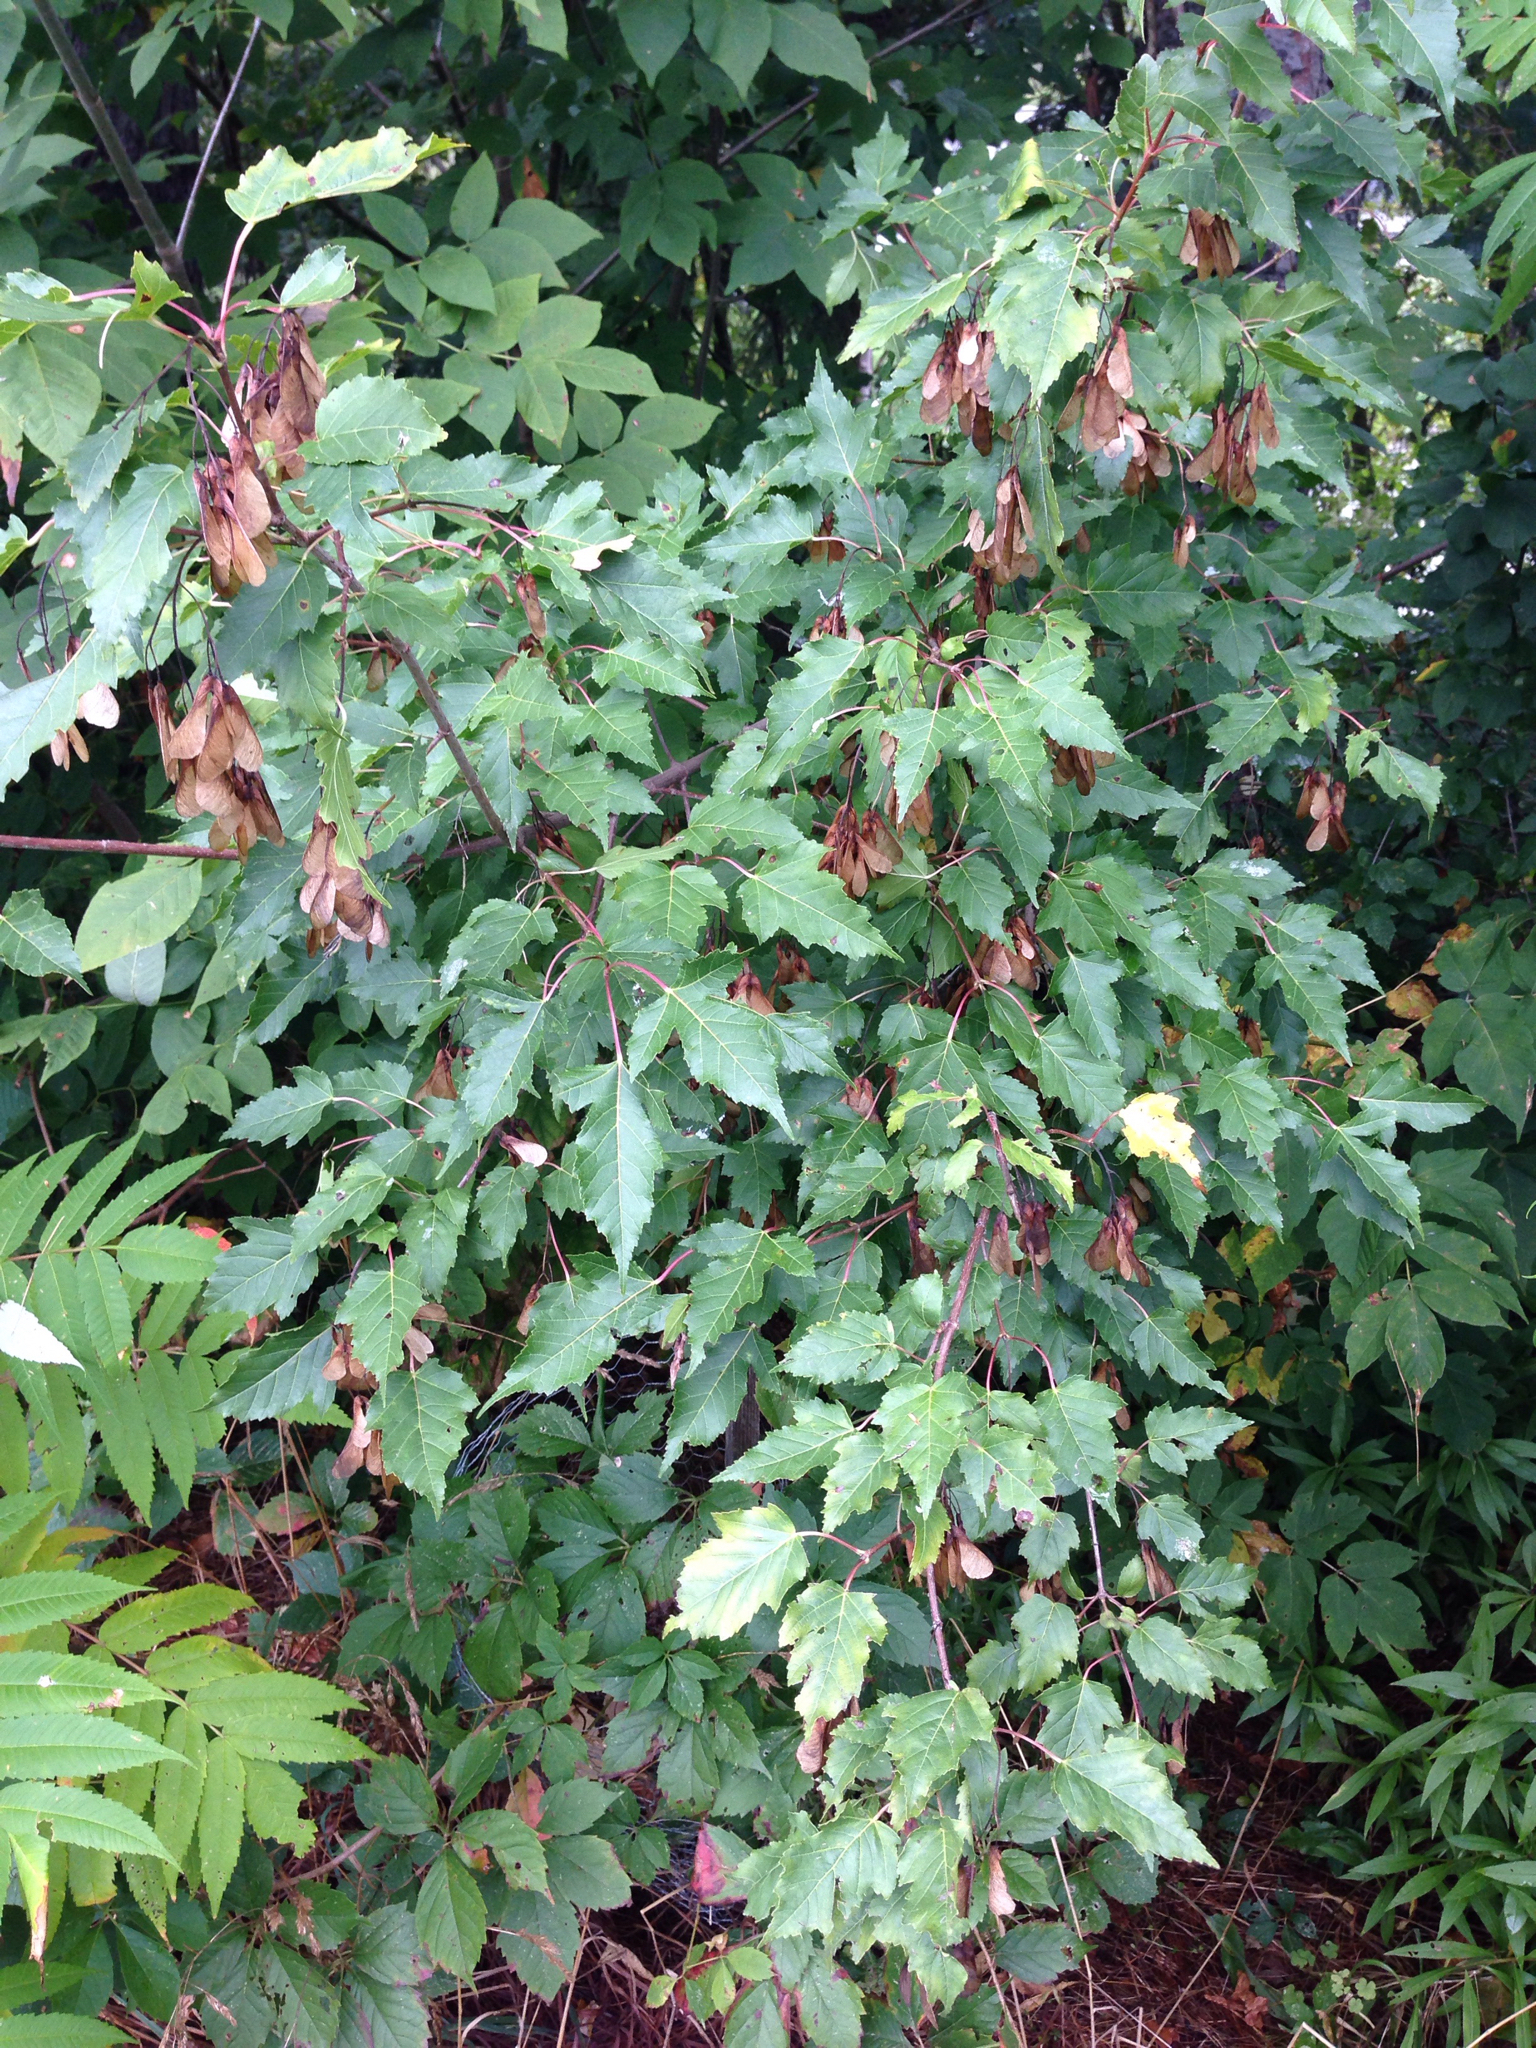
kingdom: Plantae
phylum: Tracheophyta
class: Magnoliopsida
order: Sapindales
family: Sapindaceae
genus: Acer
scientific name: Acer tataricum
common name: Tartar maple
